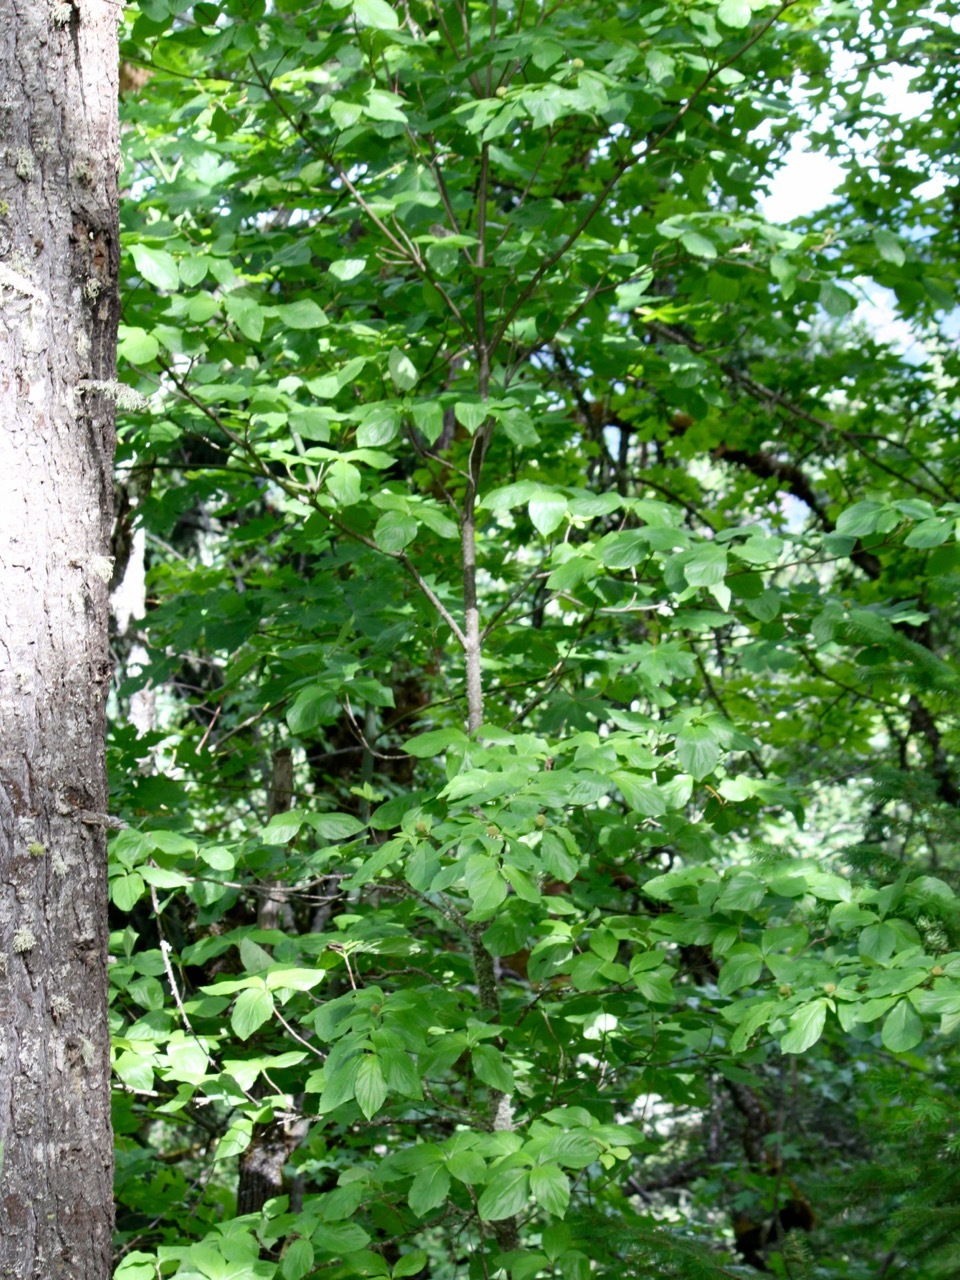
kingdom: Plantae
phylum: Tracheophyta
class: Magnoliopsida
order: Cornales
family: Cornaceae
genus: Cornus
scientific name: Cornus unalaschkensis
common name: Alaska bunchberry
